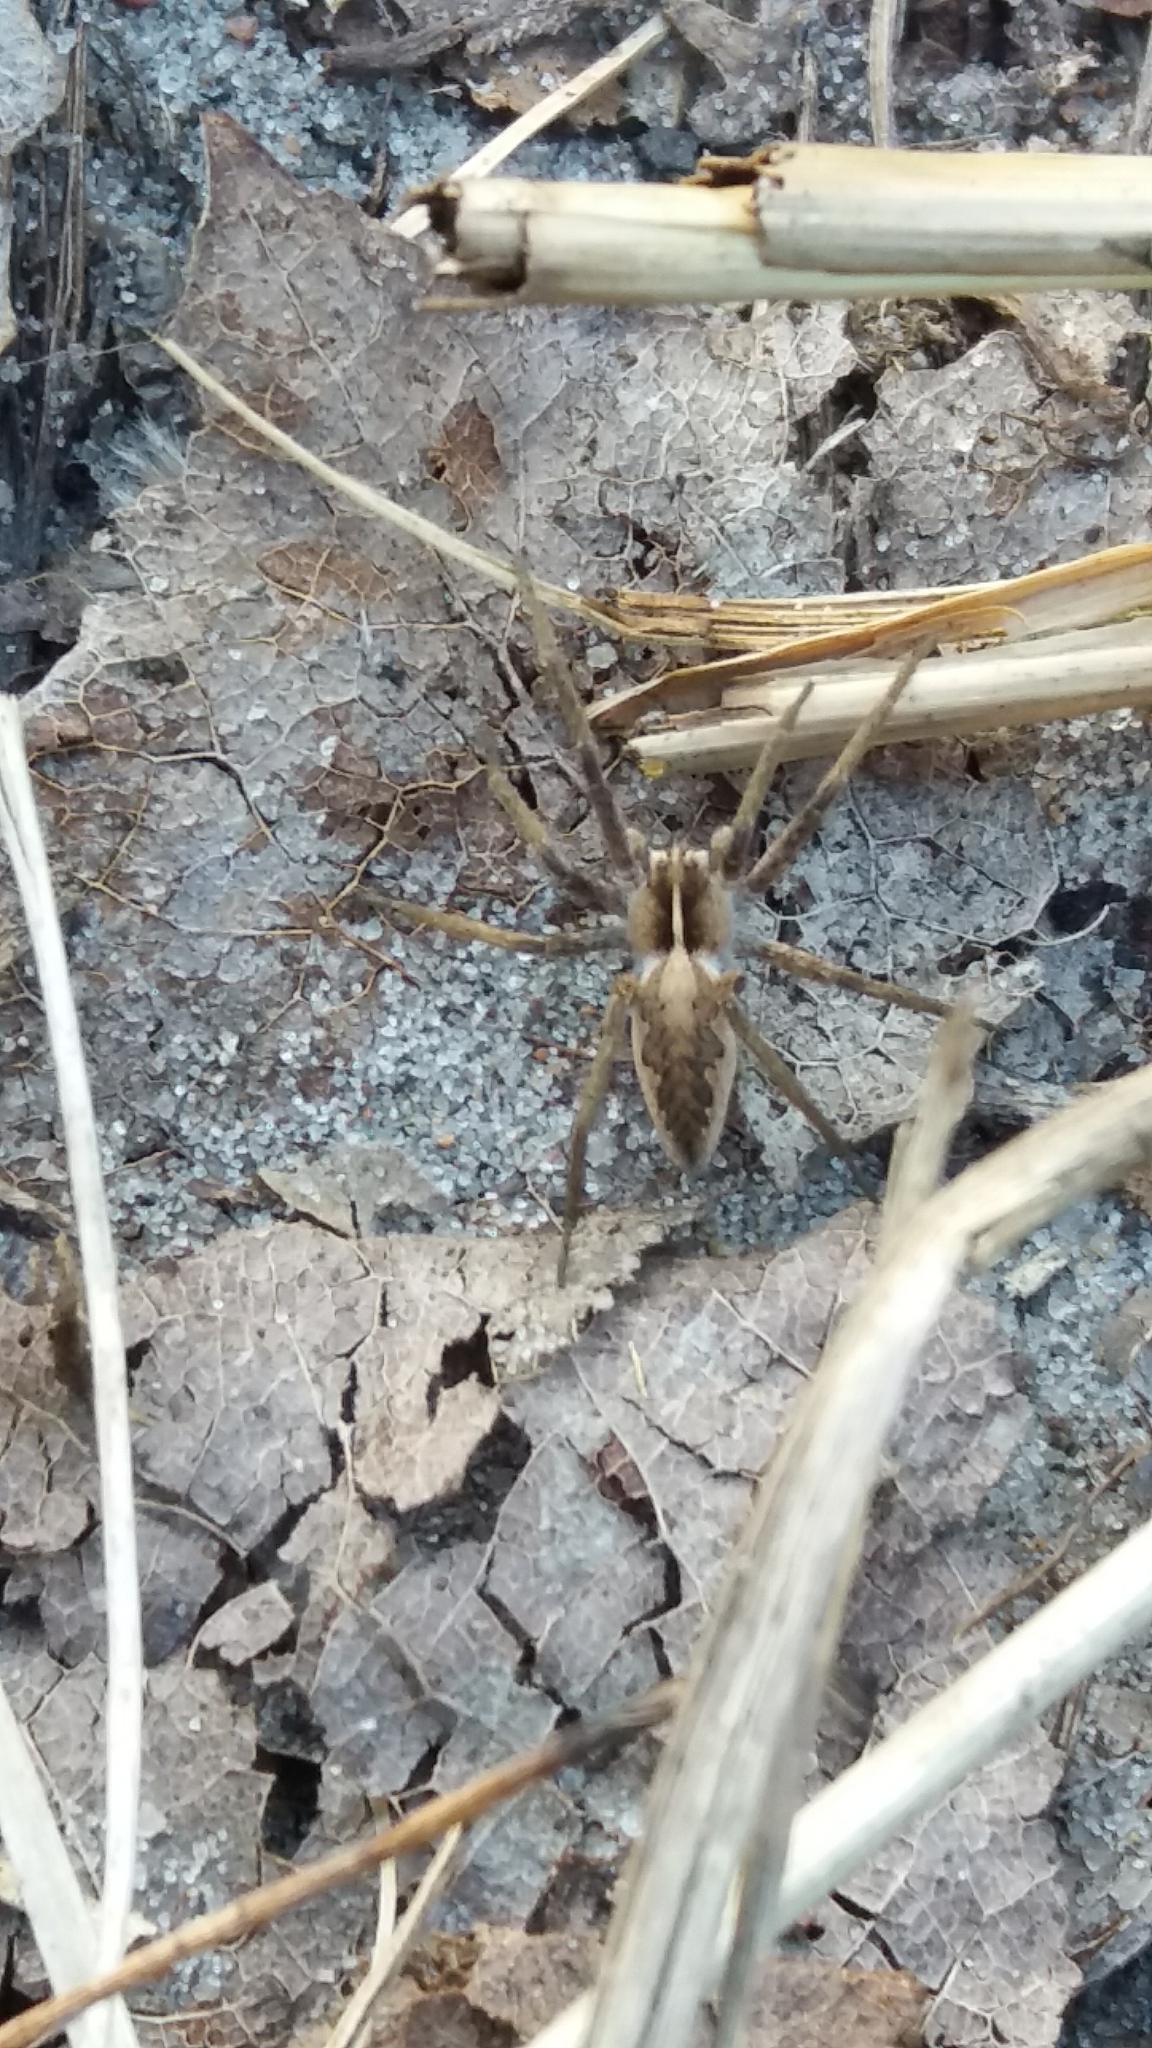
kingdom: Animalia
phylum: Arthropoda
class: Arachnida
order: Araneae
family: Pisauridae
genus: Pisaura
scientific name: Pisaura mirabilis
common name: Tent spider
